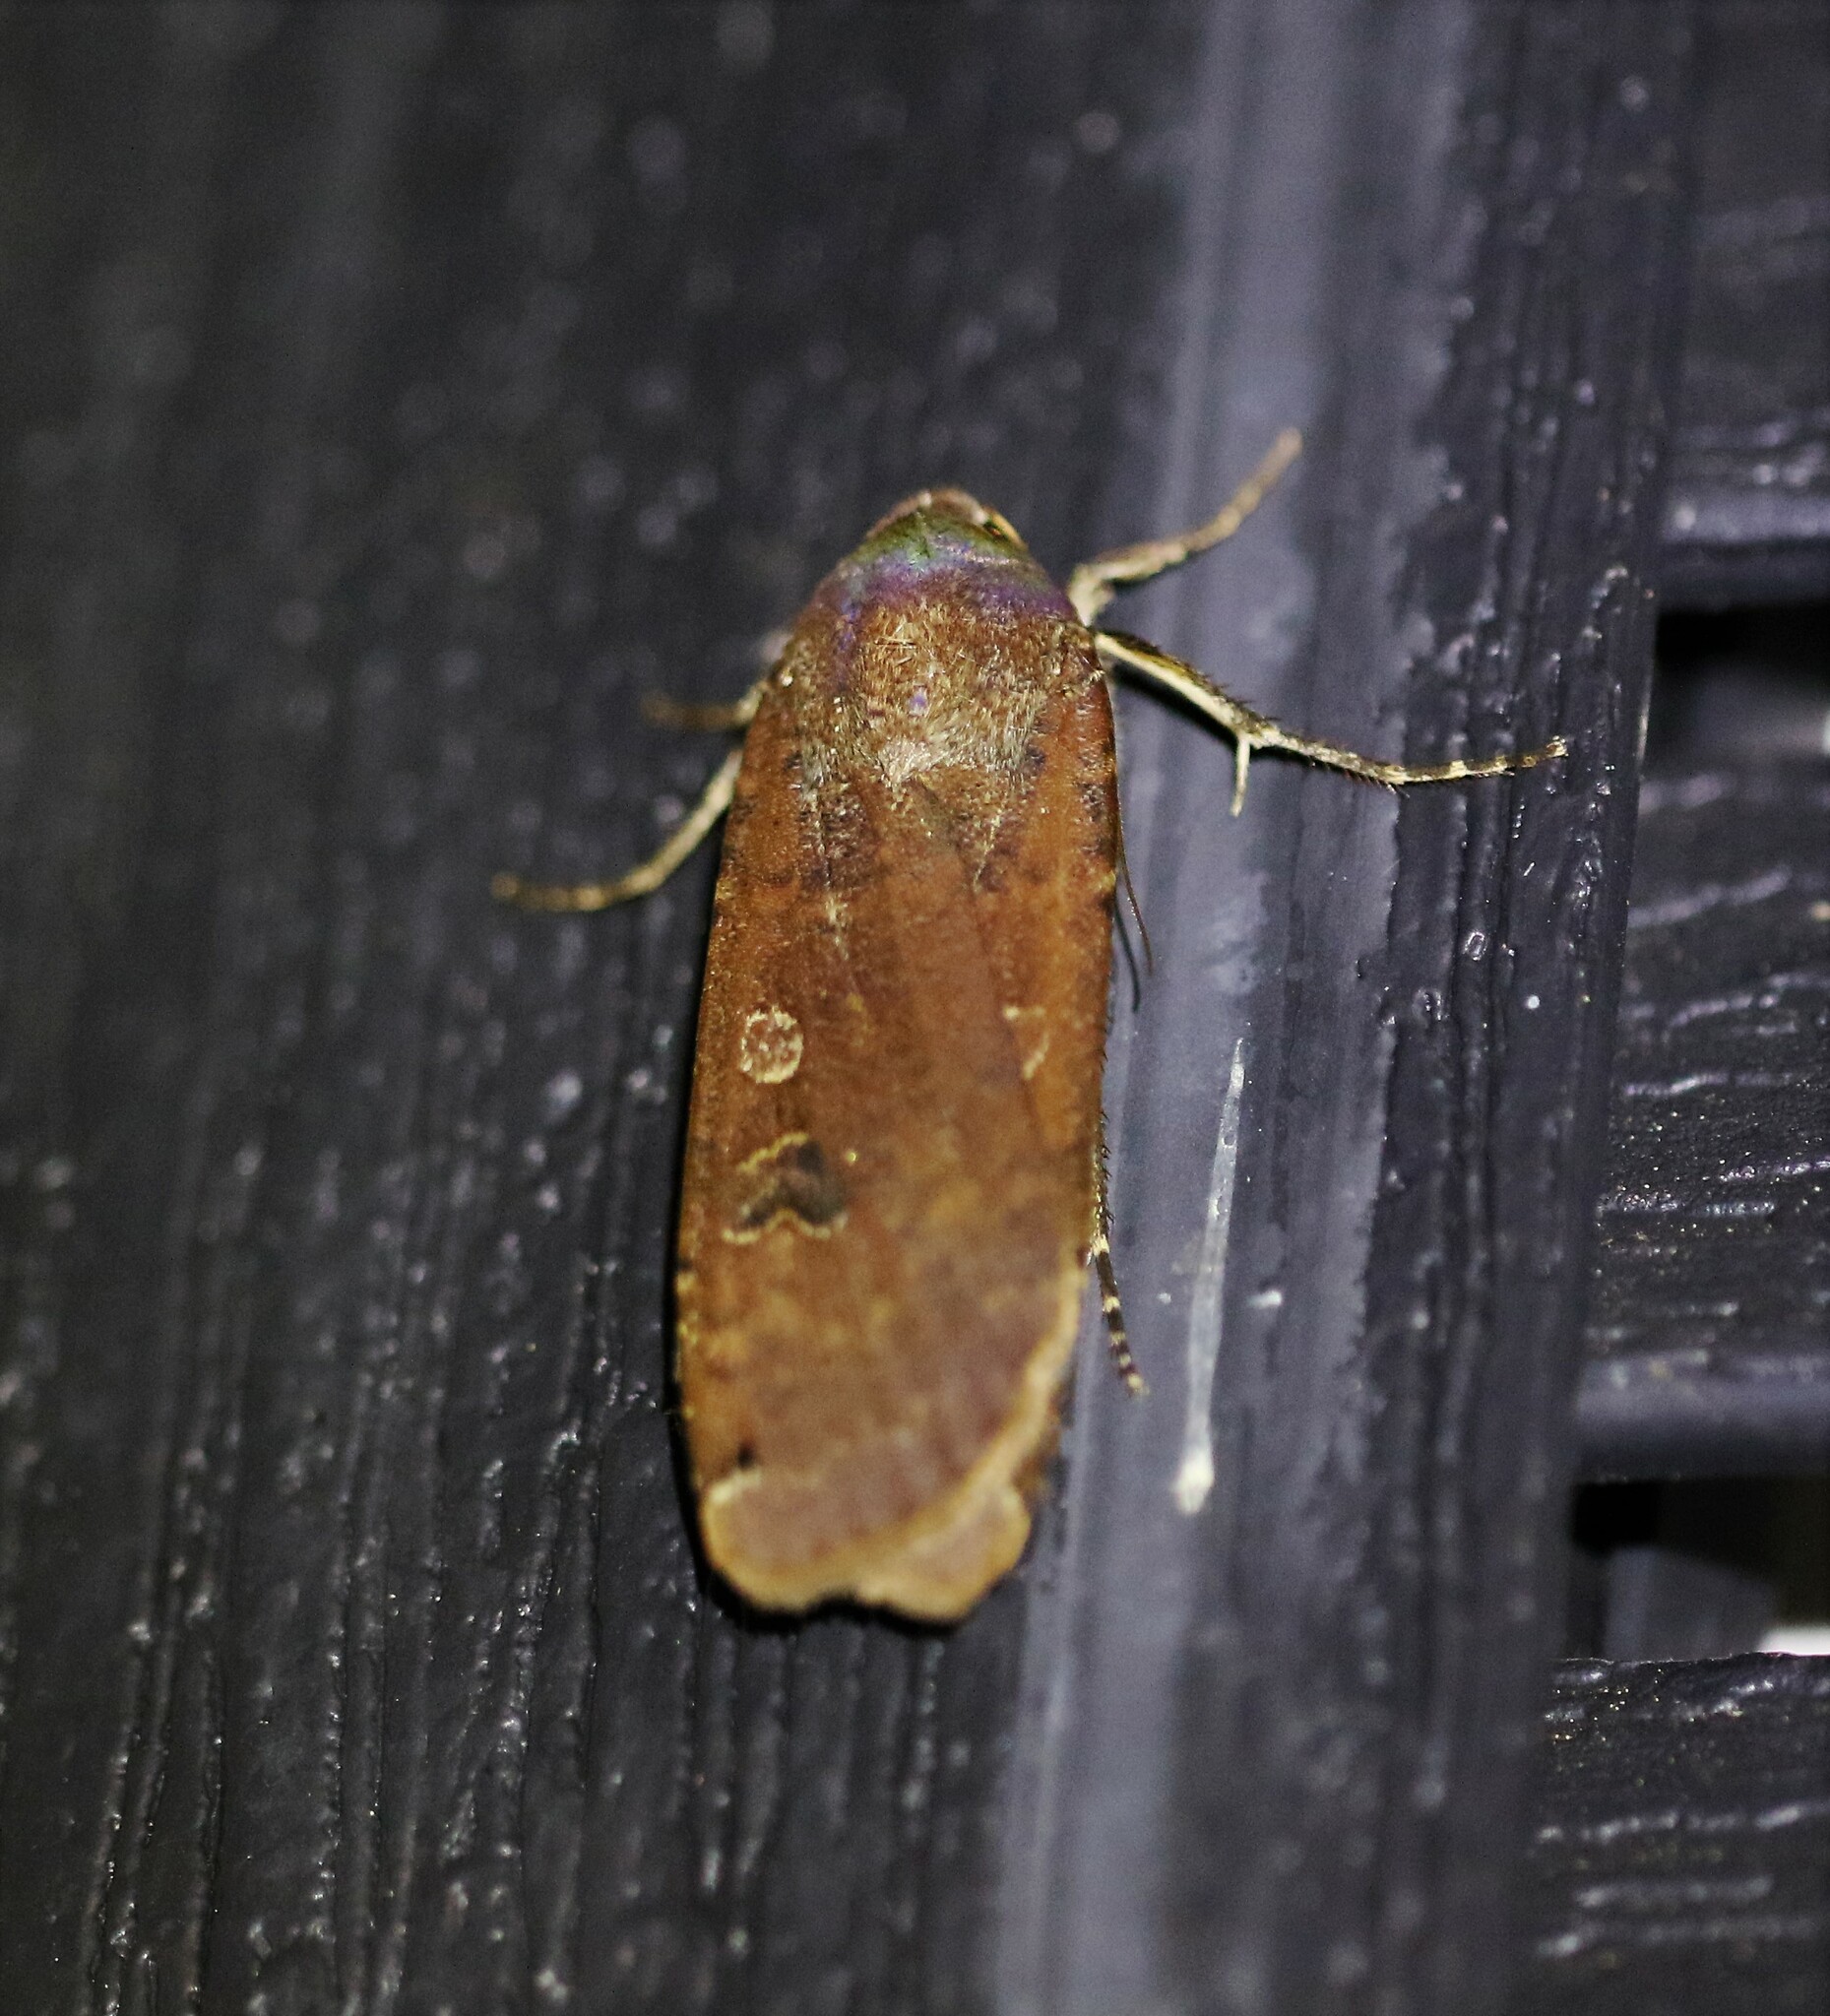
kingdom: Animalia
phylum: Arthropoda
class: Insecta
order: Lepidoptera
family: Noctuidae
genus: Noctua
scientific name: Noctua pronuba
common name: Large yellow underwing
